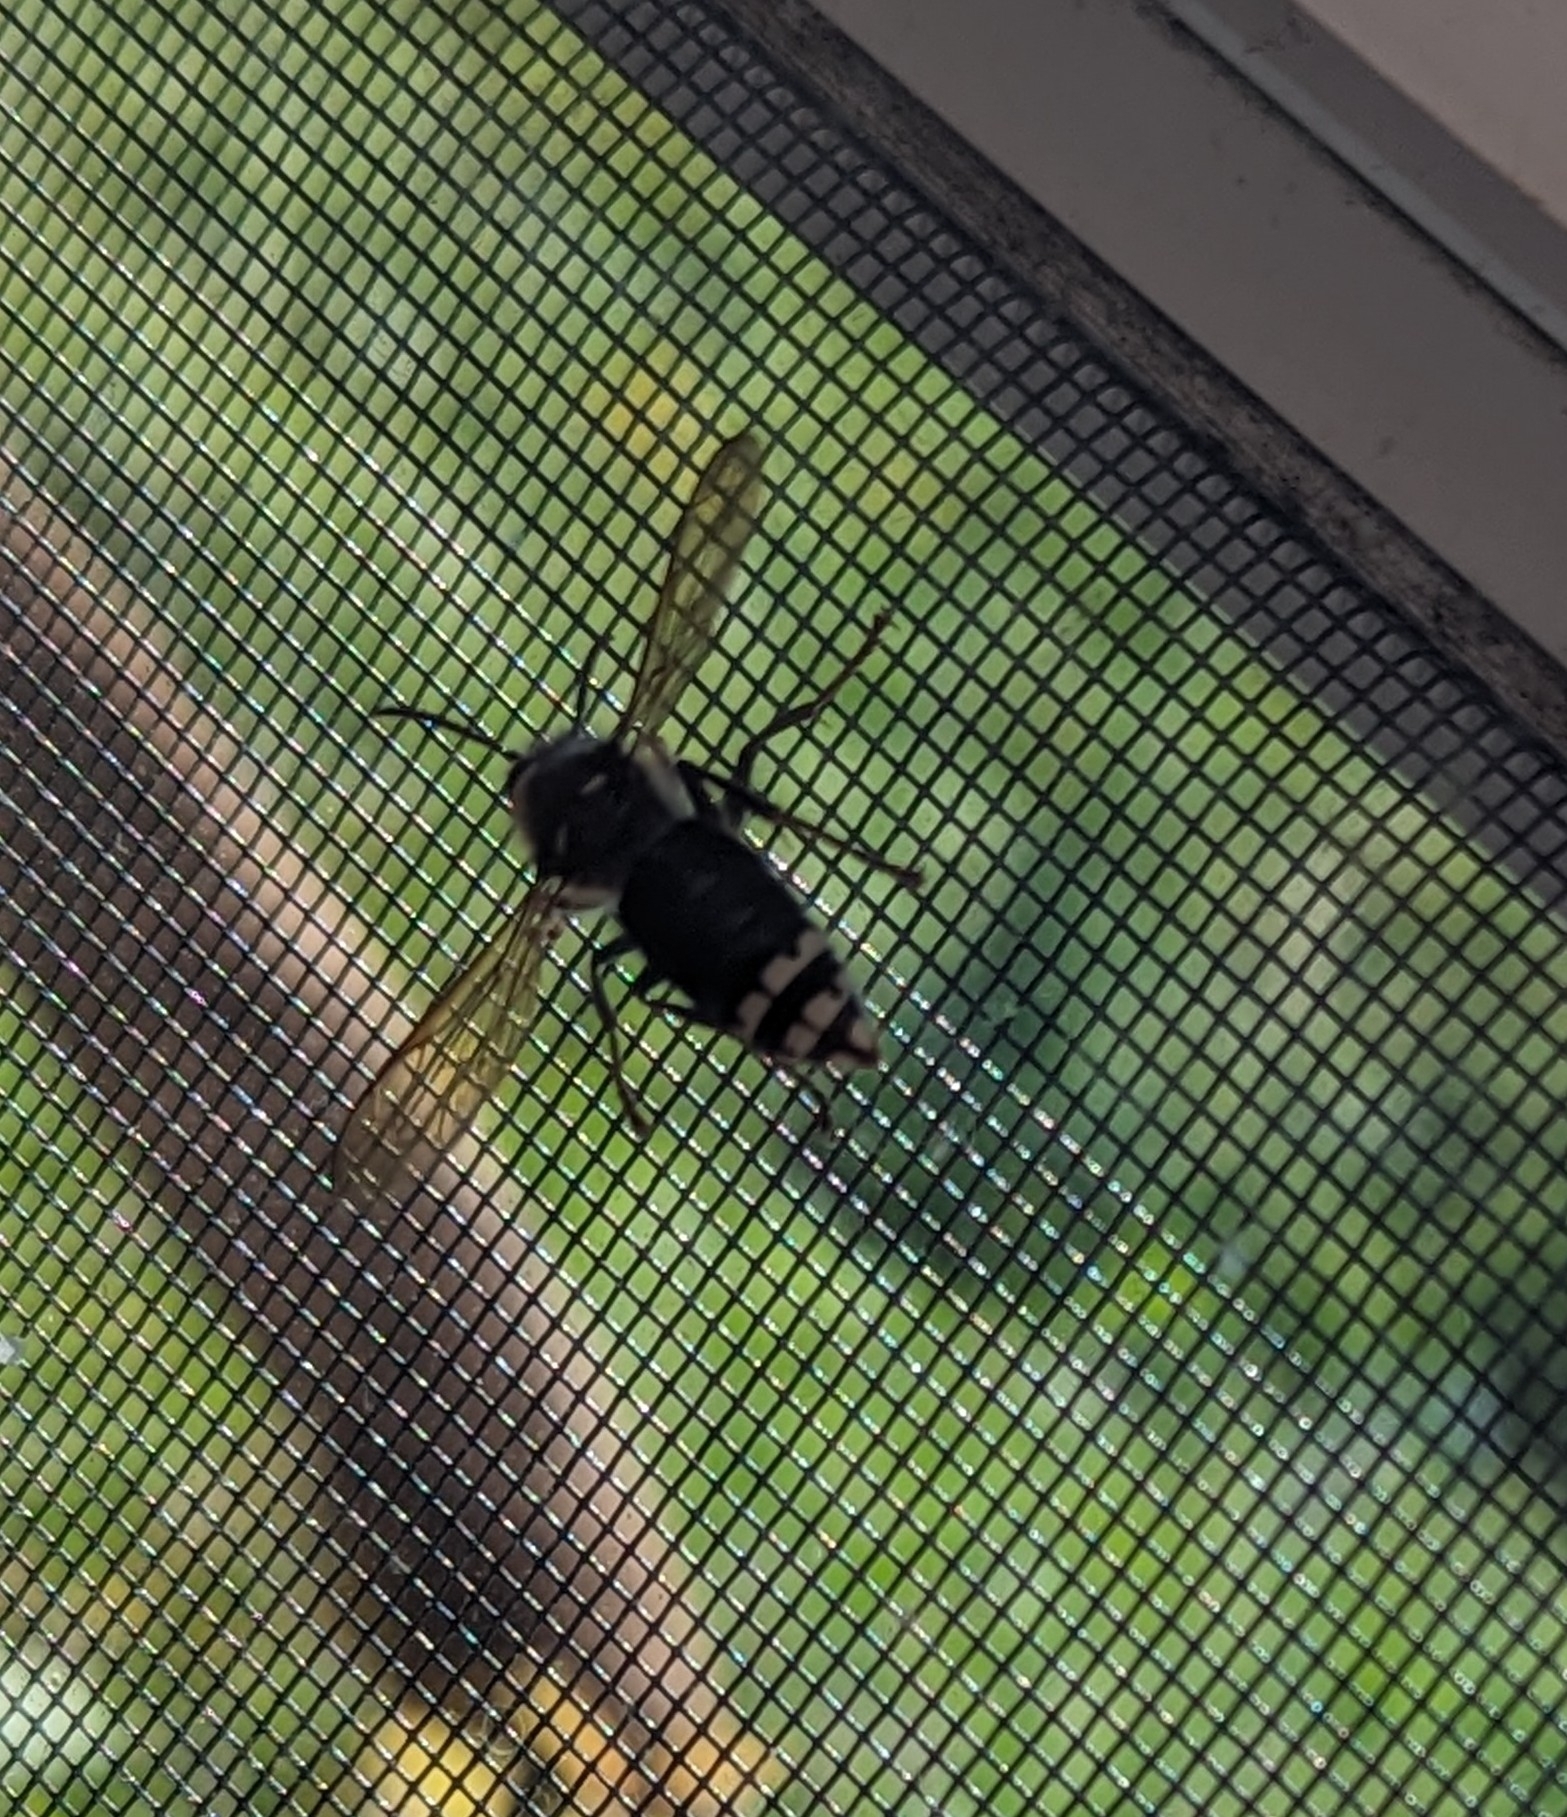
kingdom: Animalia
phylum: Arthropoda
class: Insecta
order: Hymenoptera
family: Vespidae
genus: Dolichovespula
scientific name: Dolichovespula maculata
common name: Bald-faced hornet
